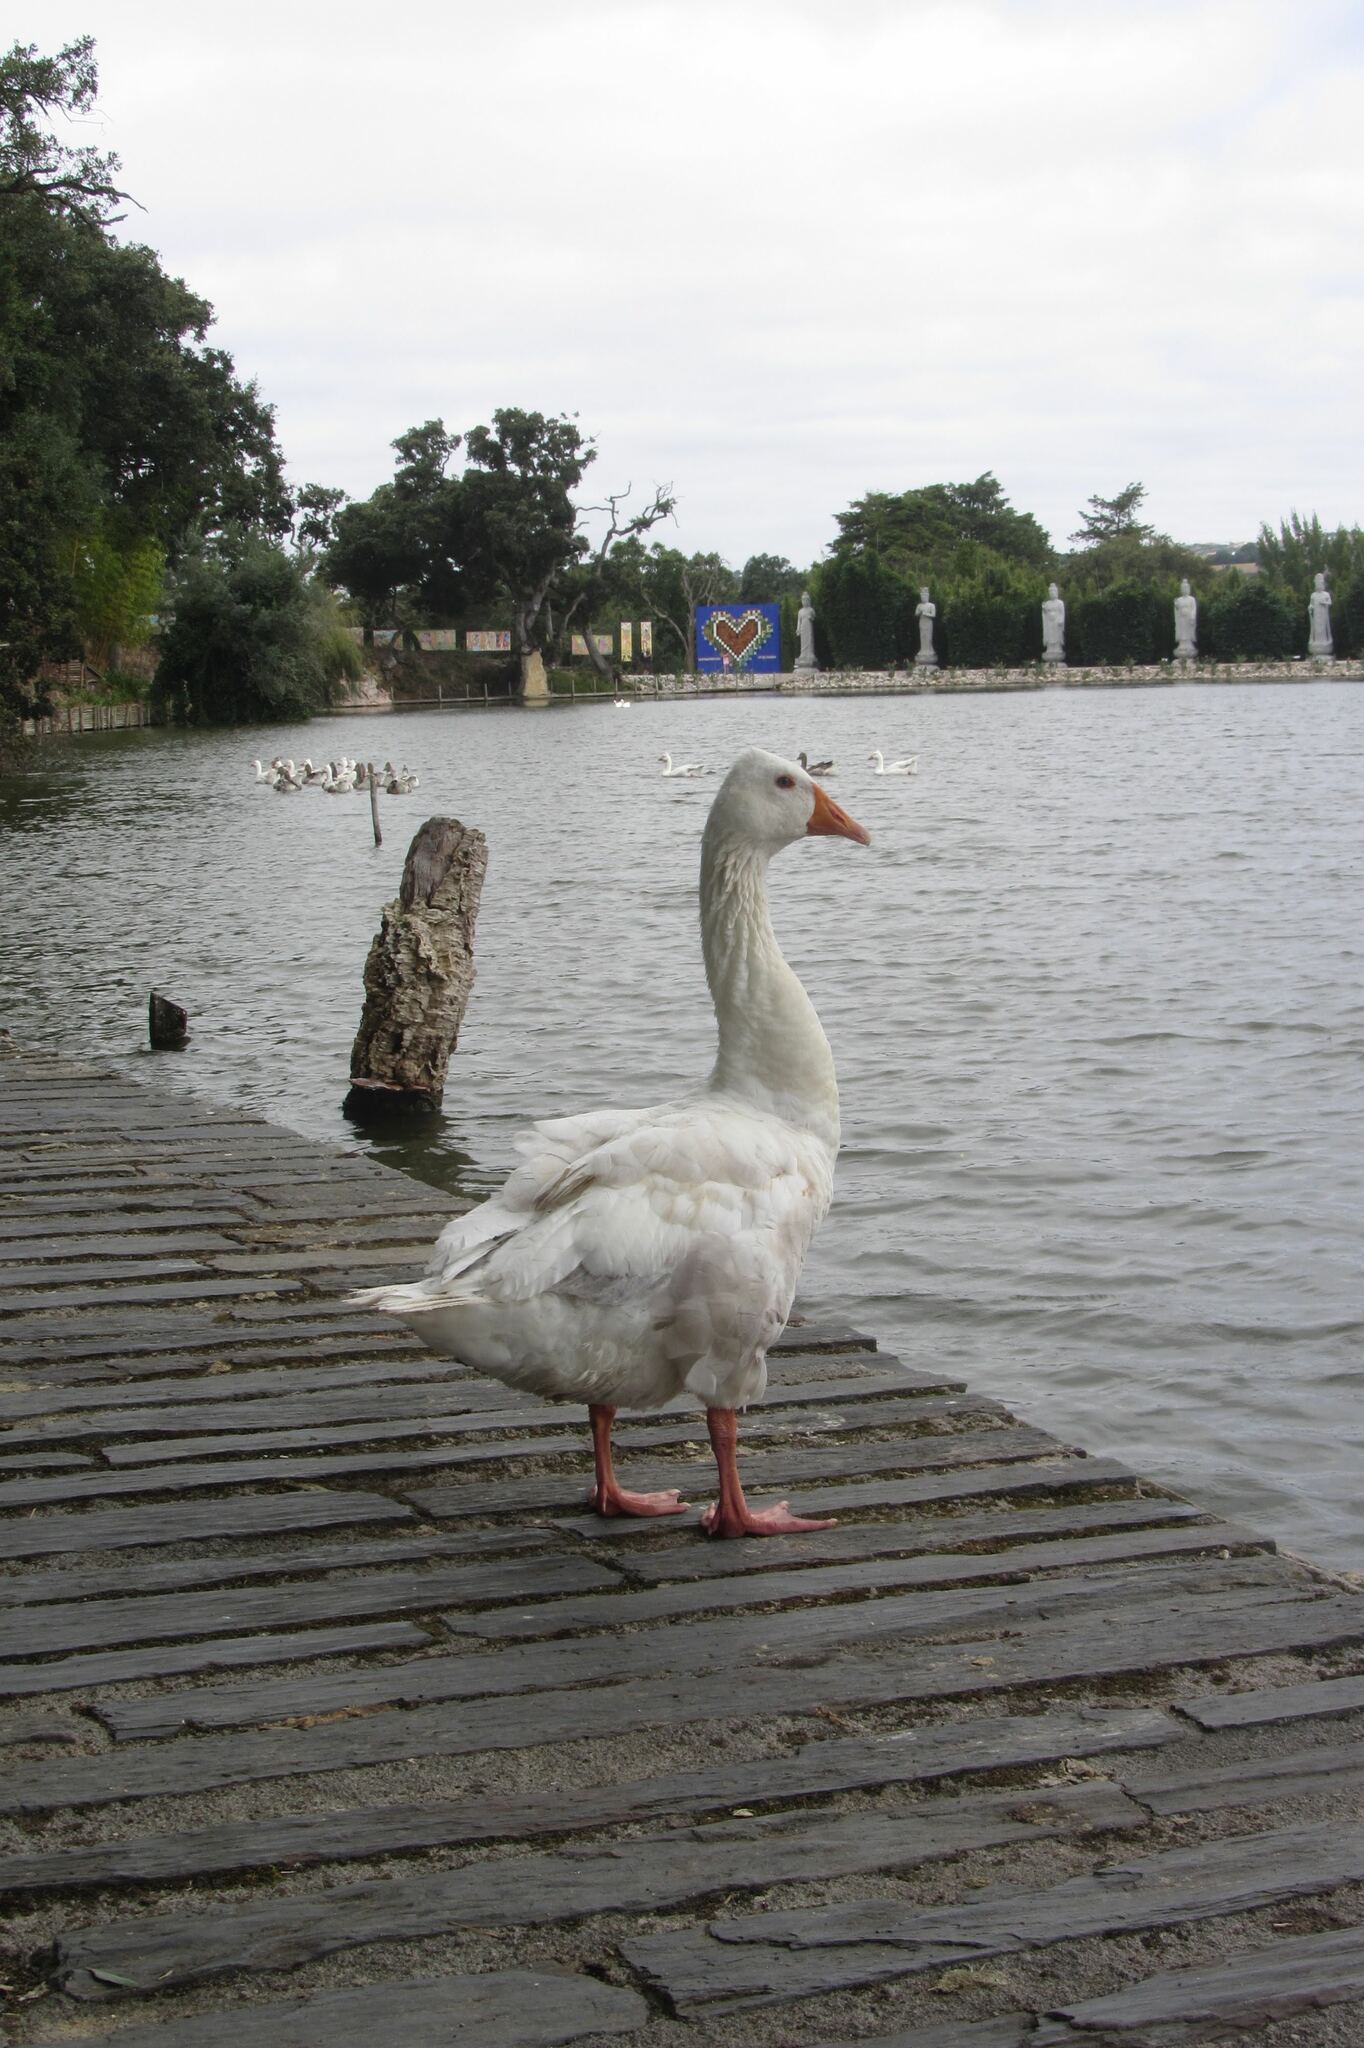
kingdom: Animalia
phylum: Chordata
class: Aves
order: Anseriformes
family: Anatidae
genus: Anser
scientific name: Anser anser
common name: Greylag goose
